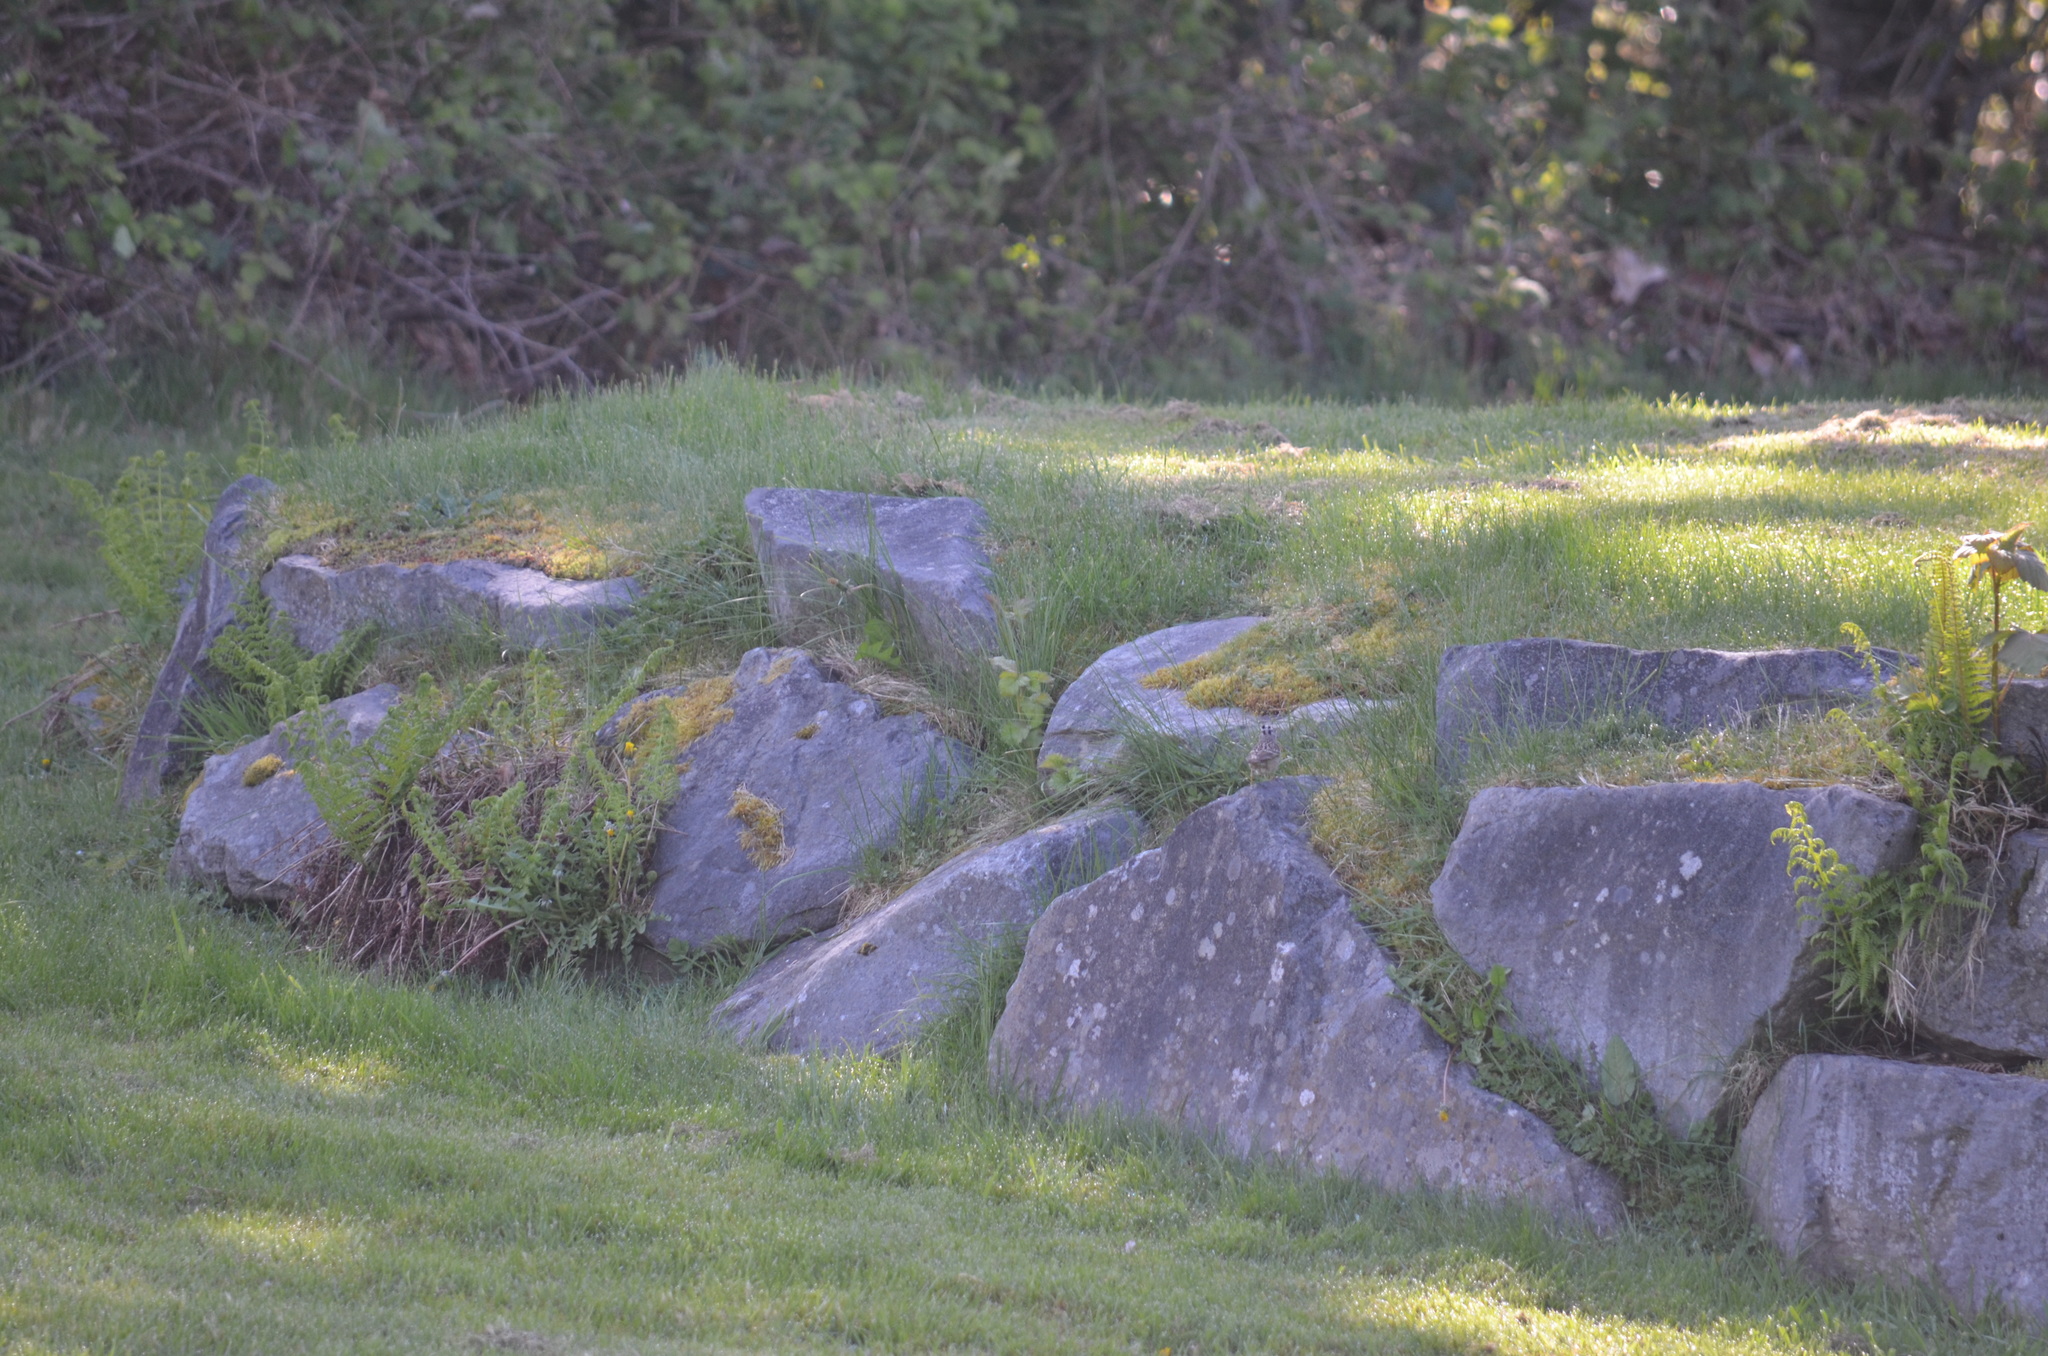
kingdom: Animalia
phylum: Chordata
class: Aves
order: Passeriformes
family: Passerellidae
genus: Zonotrichia
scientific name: Zonotrichia leucophrys
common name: White-crowned sparrow
